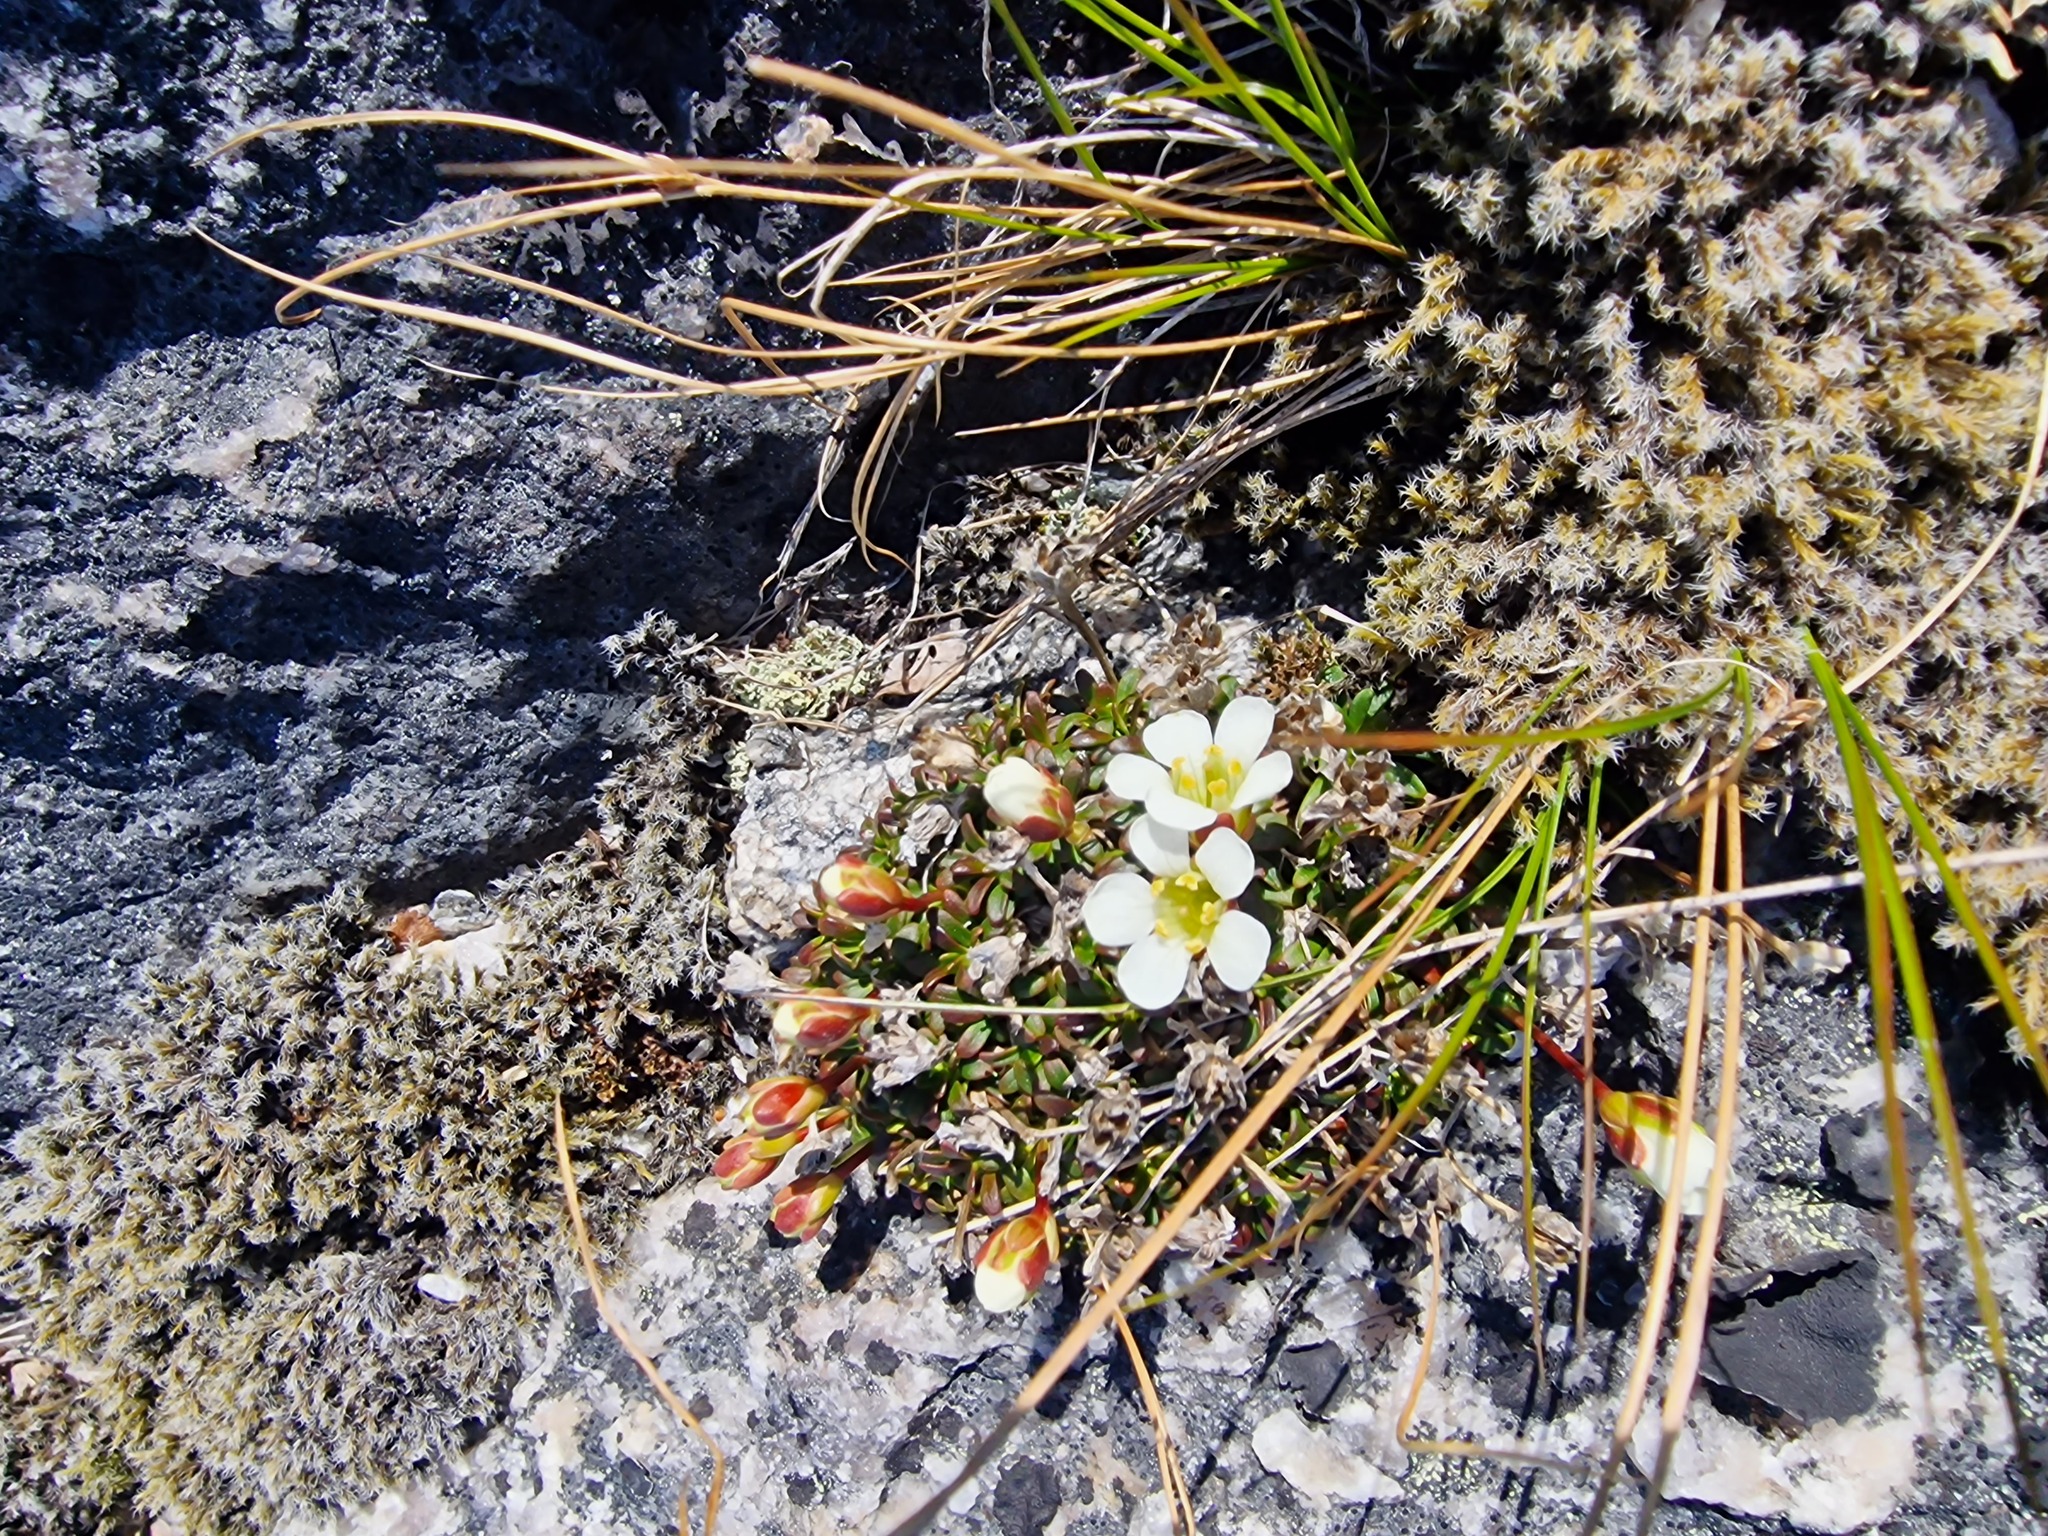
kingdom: Plantae
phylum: Tracheophyta
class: Magnoliopsida
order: Ericales
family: Diapensiaceae
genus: Diapensia
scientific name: Diapensia lapponica
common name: Diapensia
